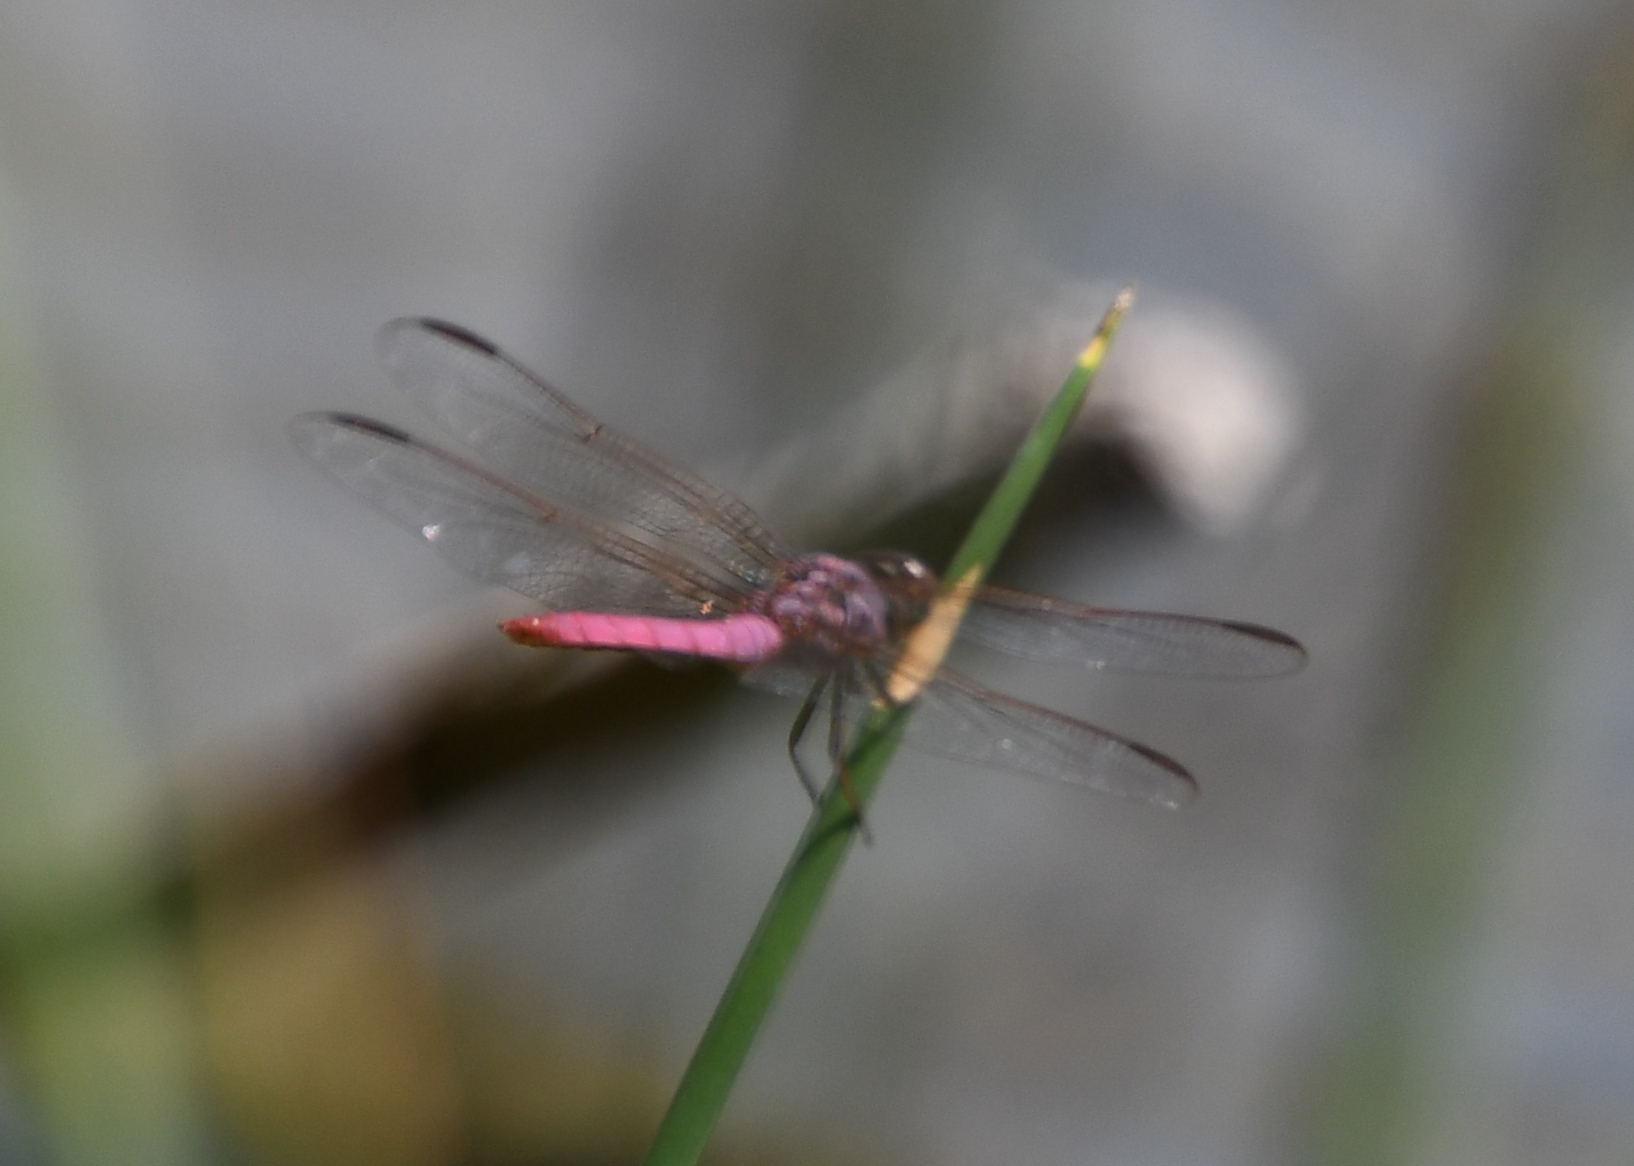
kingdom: Animalia
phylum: Arthropoda
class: Insecta
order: Odonata
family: Libellulidae
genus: Orthemis
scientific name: Orthemis ferruginea
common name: Roseate skimmer
